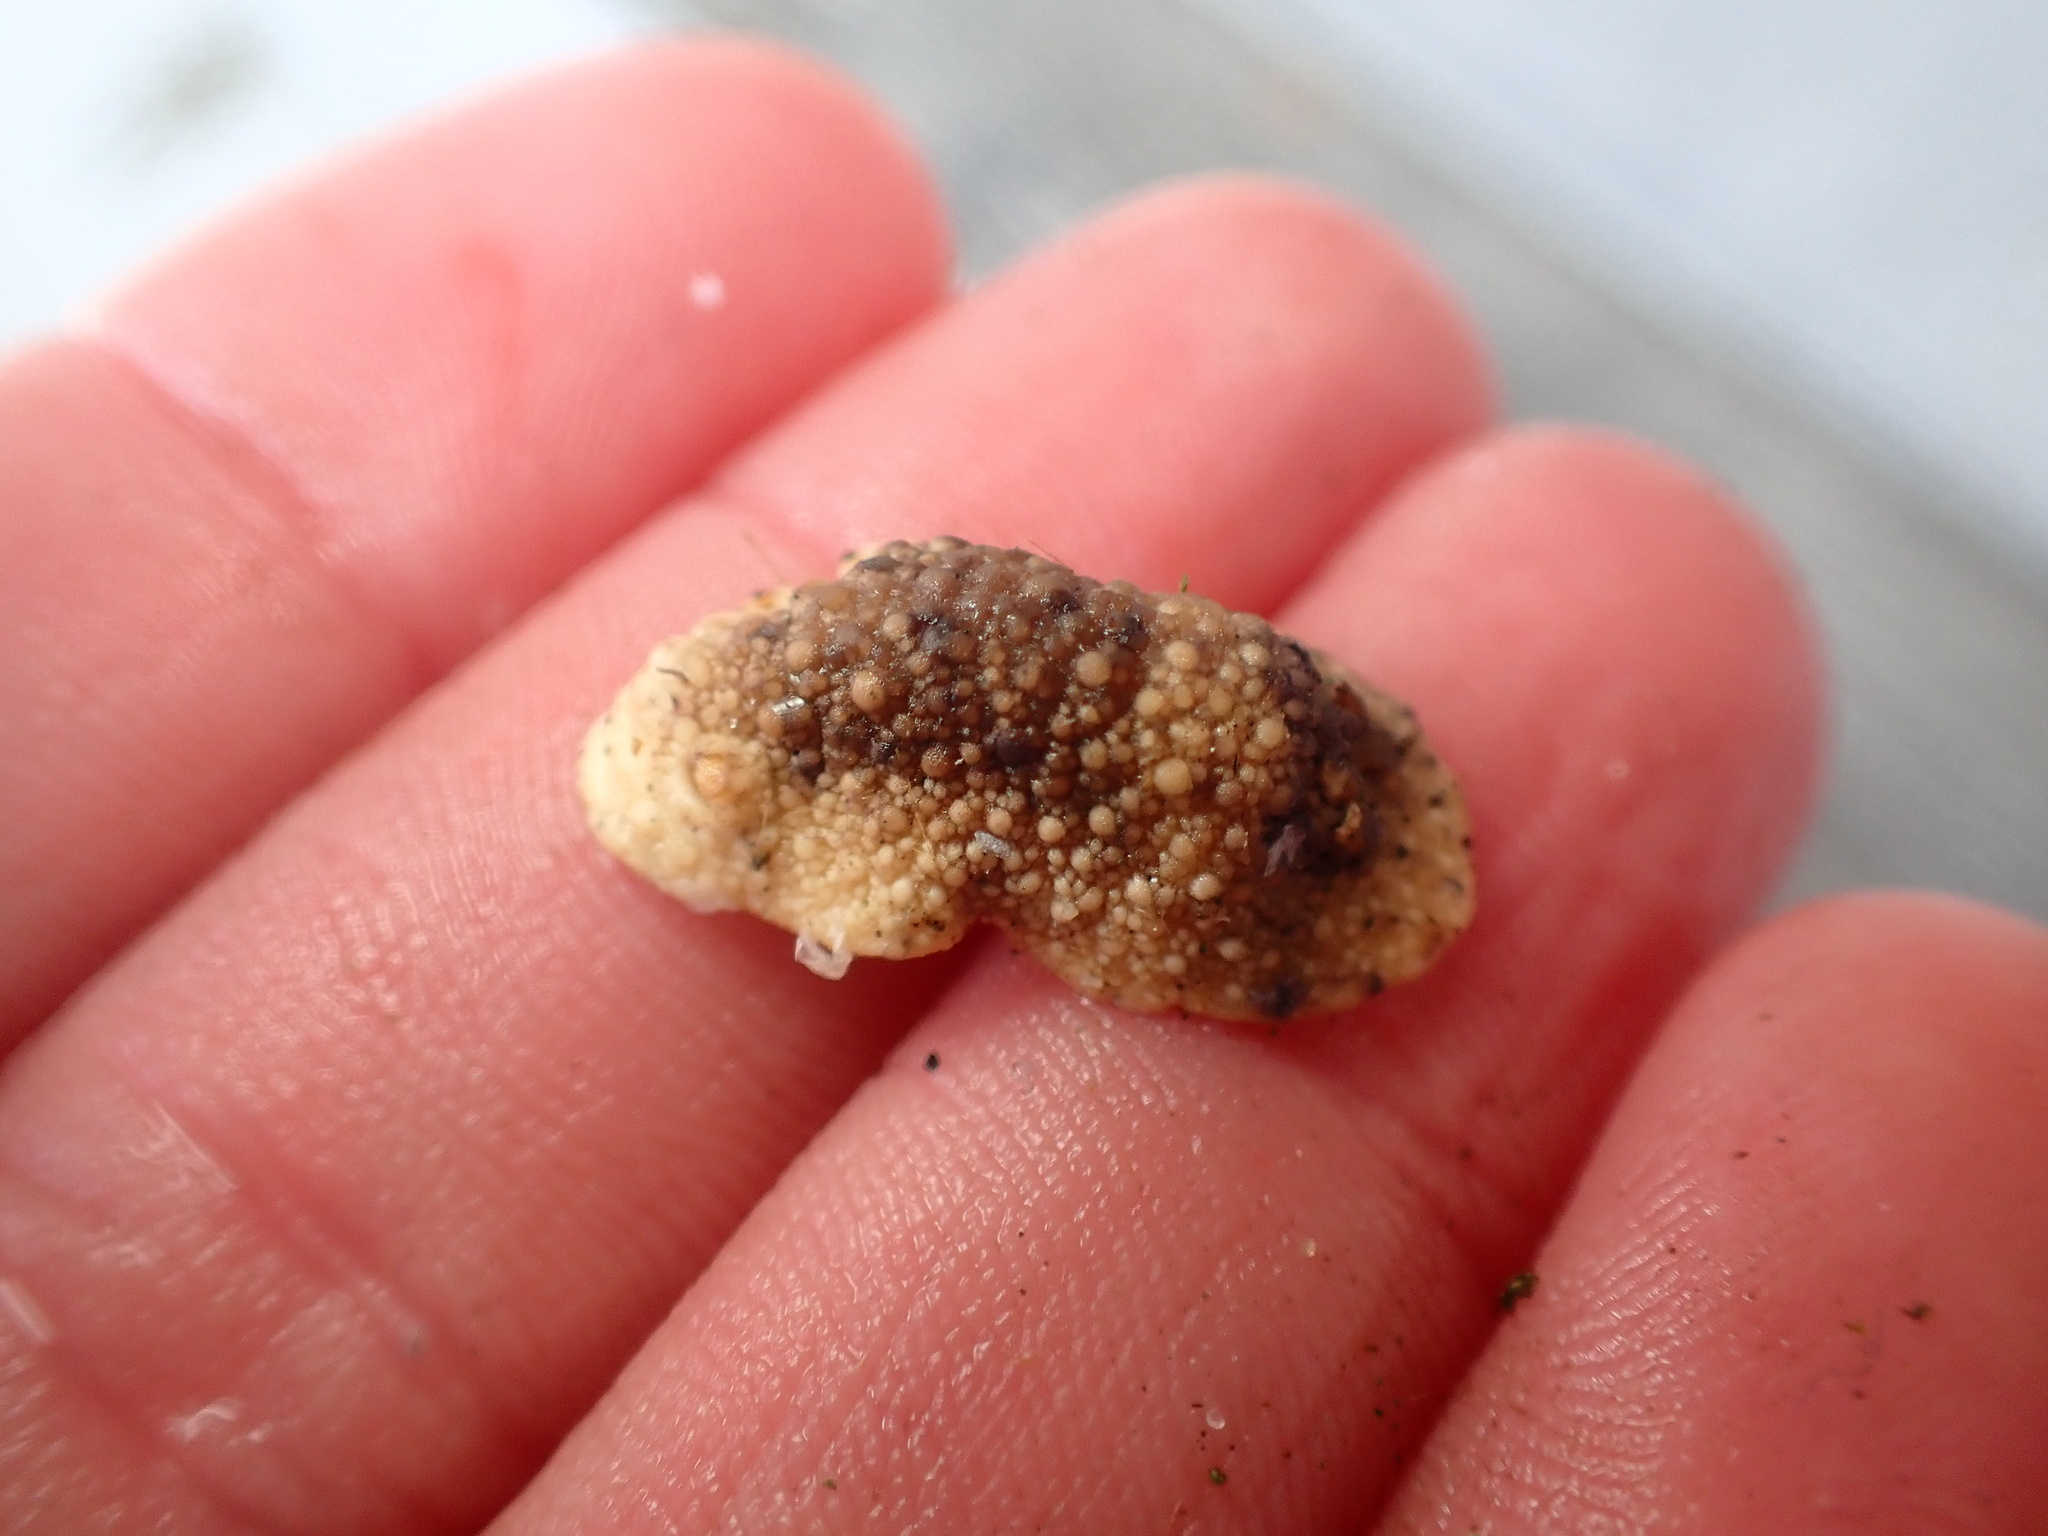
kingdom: Animalia
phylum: Mollusca
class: Gastropoda
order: Nudibranchia
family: Dorididae
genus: Doris
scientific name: Doris montereyensis
